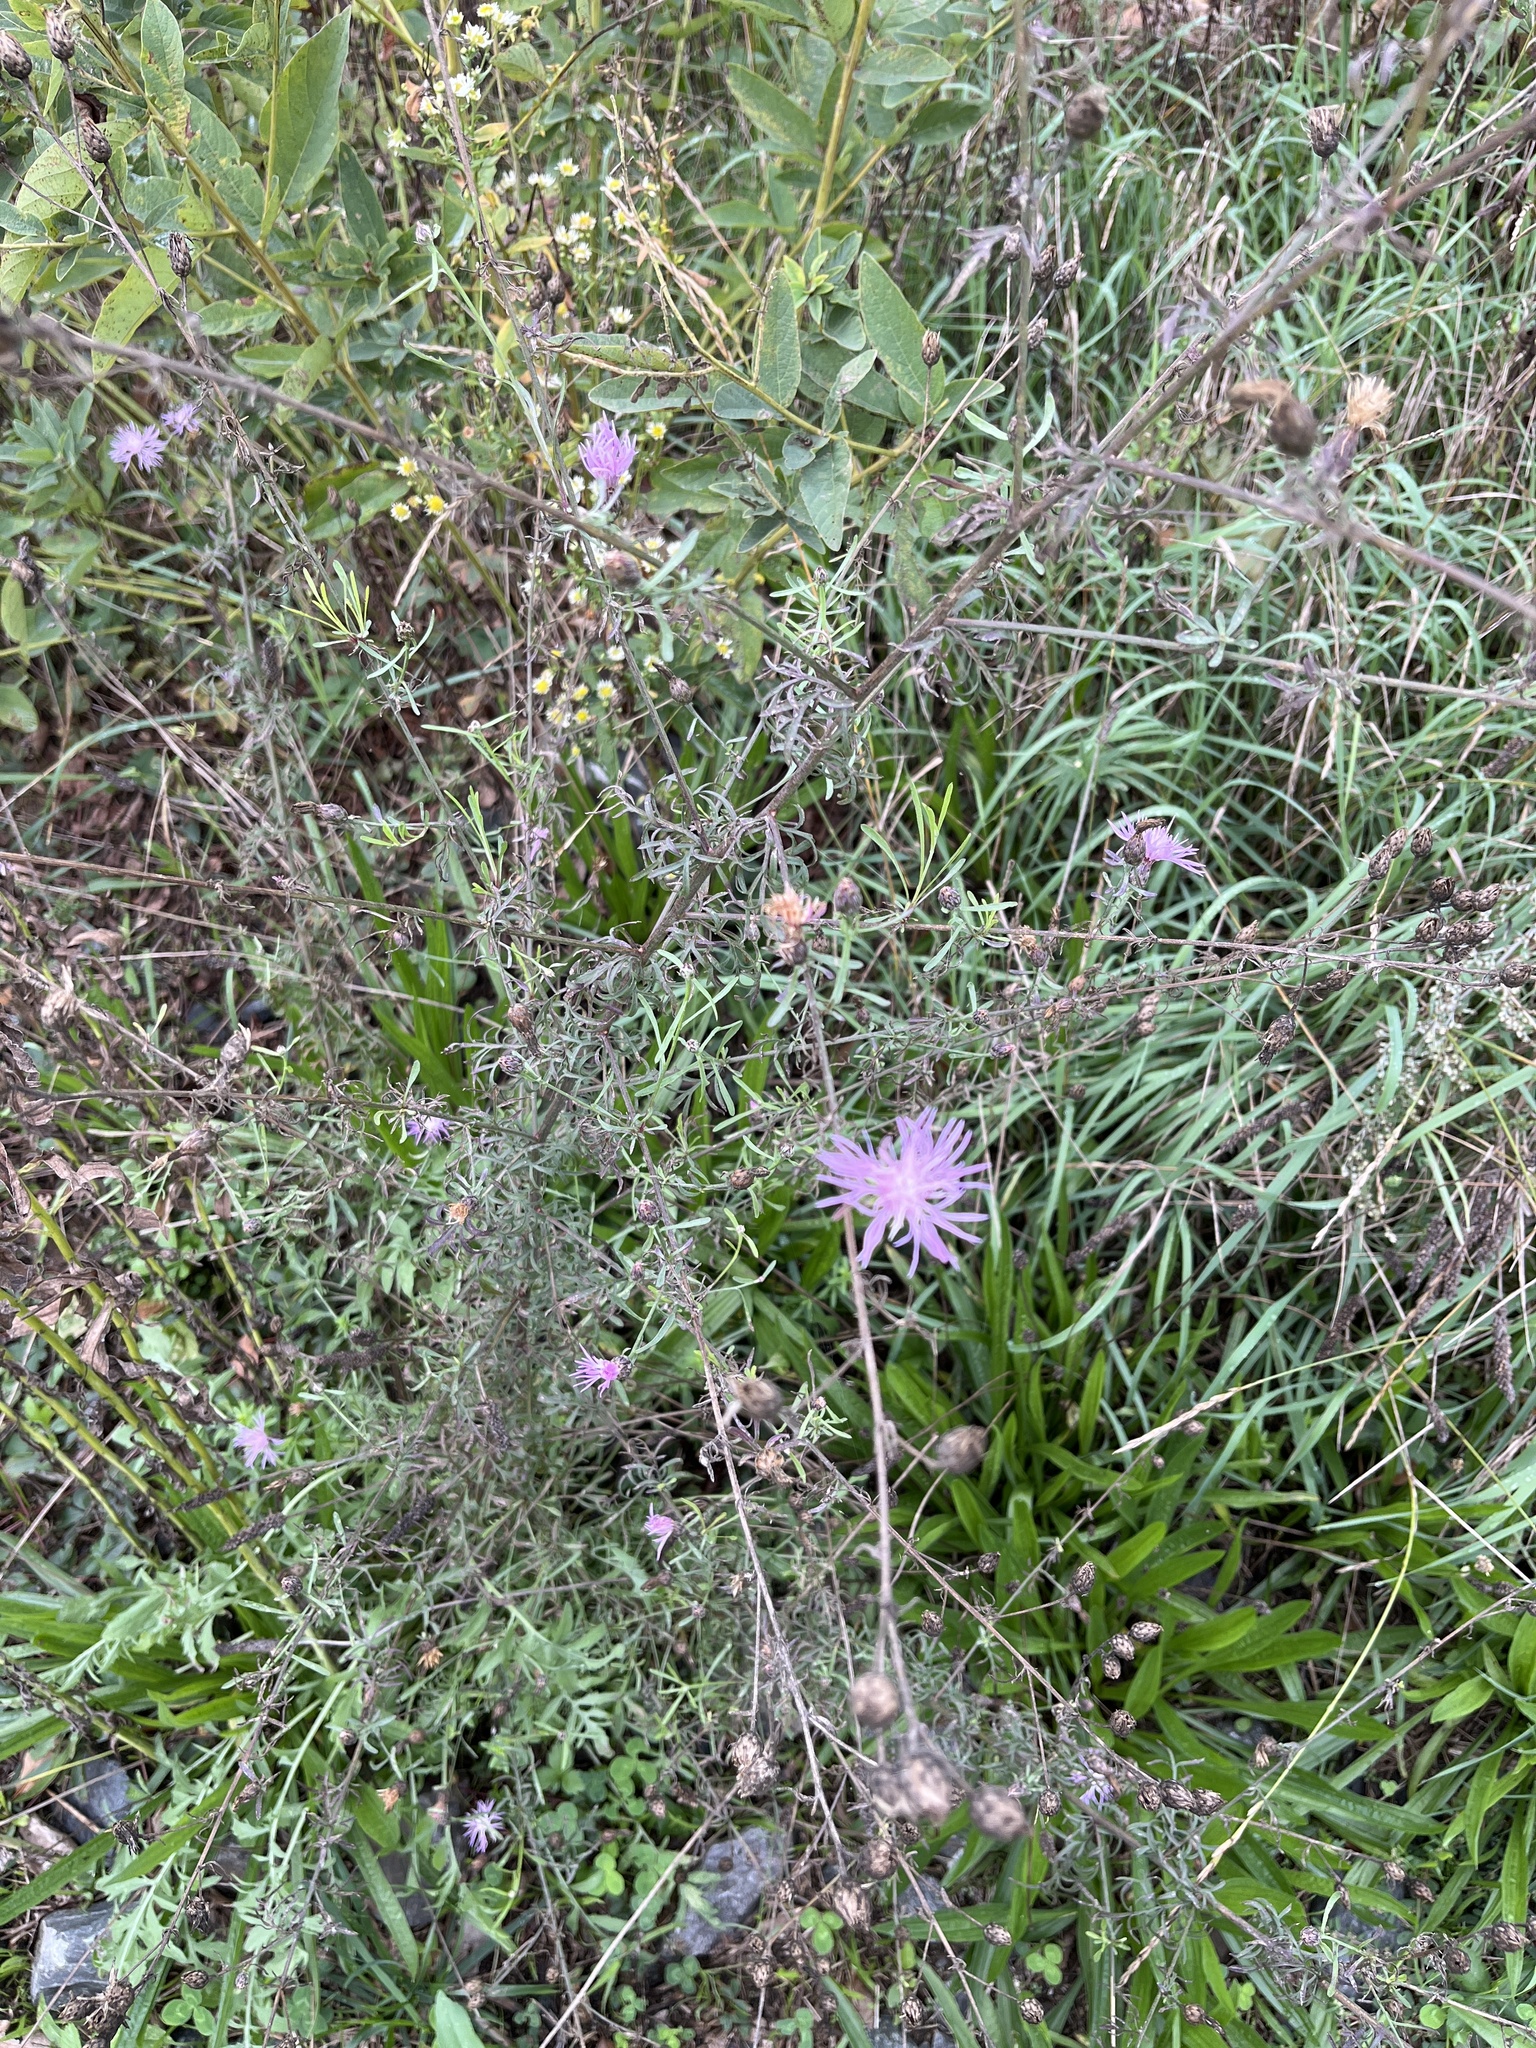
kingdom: Plantae
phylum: Tracheophyta
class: Magnoliopsida
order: Asterales
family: Asteraceae
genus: Centaurea
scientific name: Centaurea stoebe
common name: Spotted knapweed
